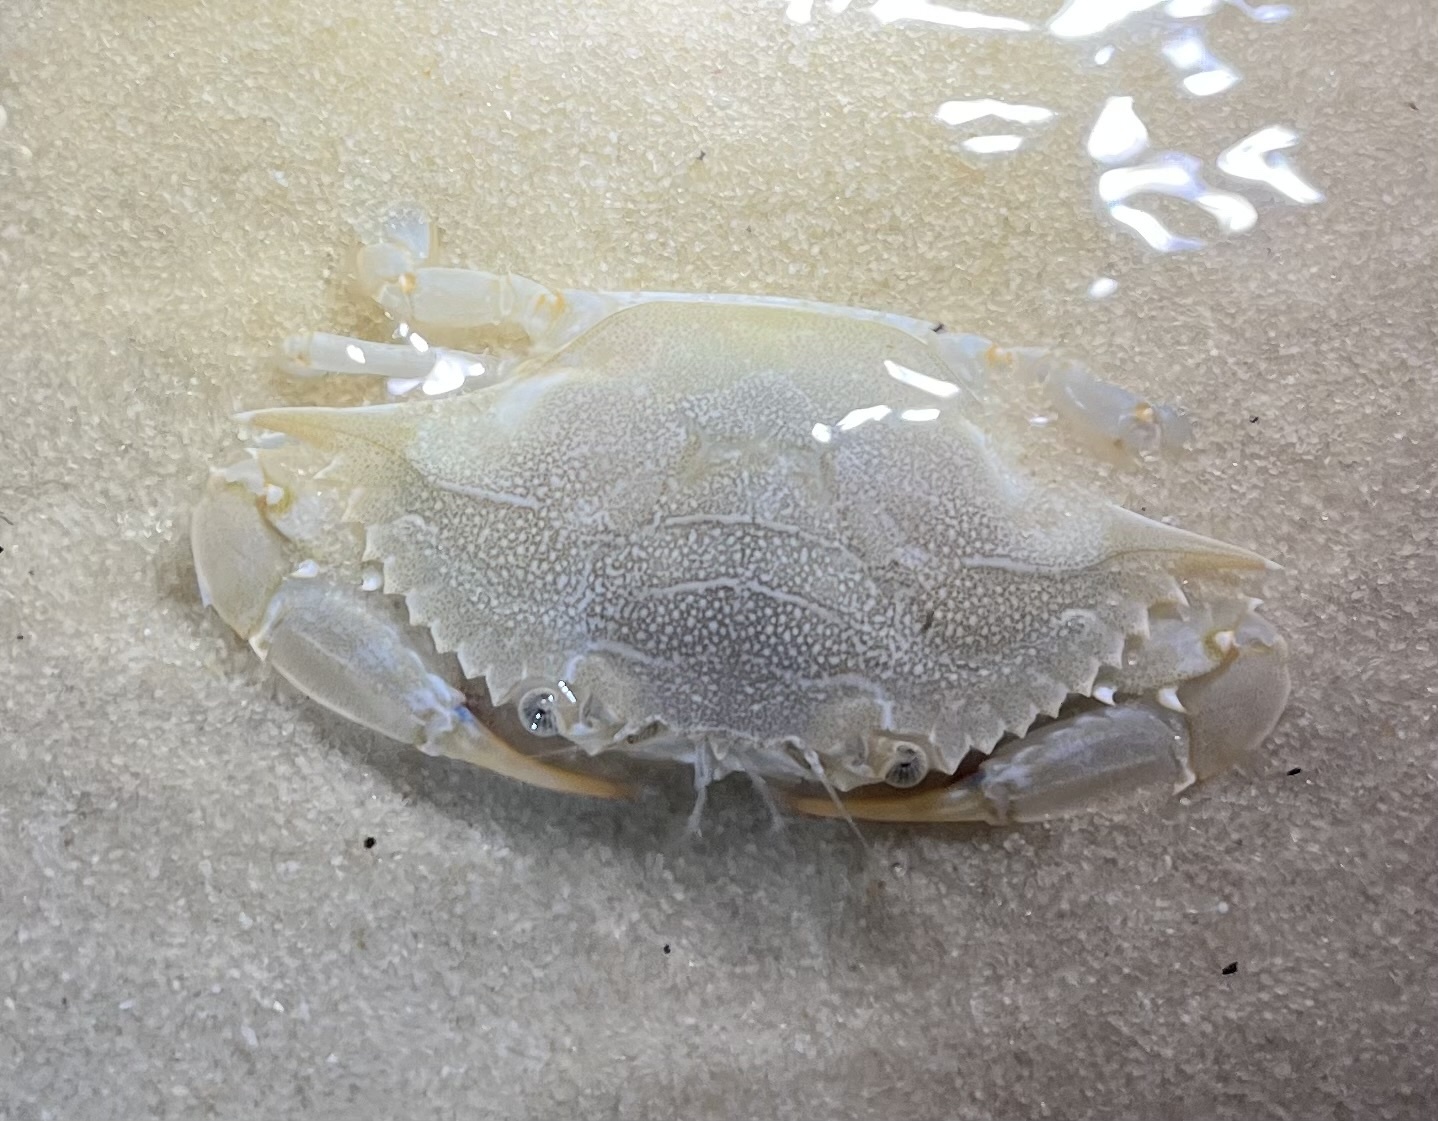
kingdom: Animalia
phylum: Arthropoda
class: Malacostraca
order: Decapoda
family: Portunidae
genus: Callinectes
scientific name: Callinectes sapidus
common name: Blue crab
